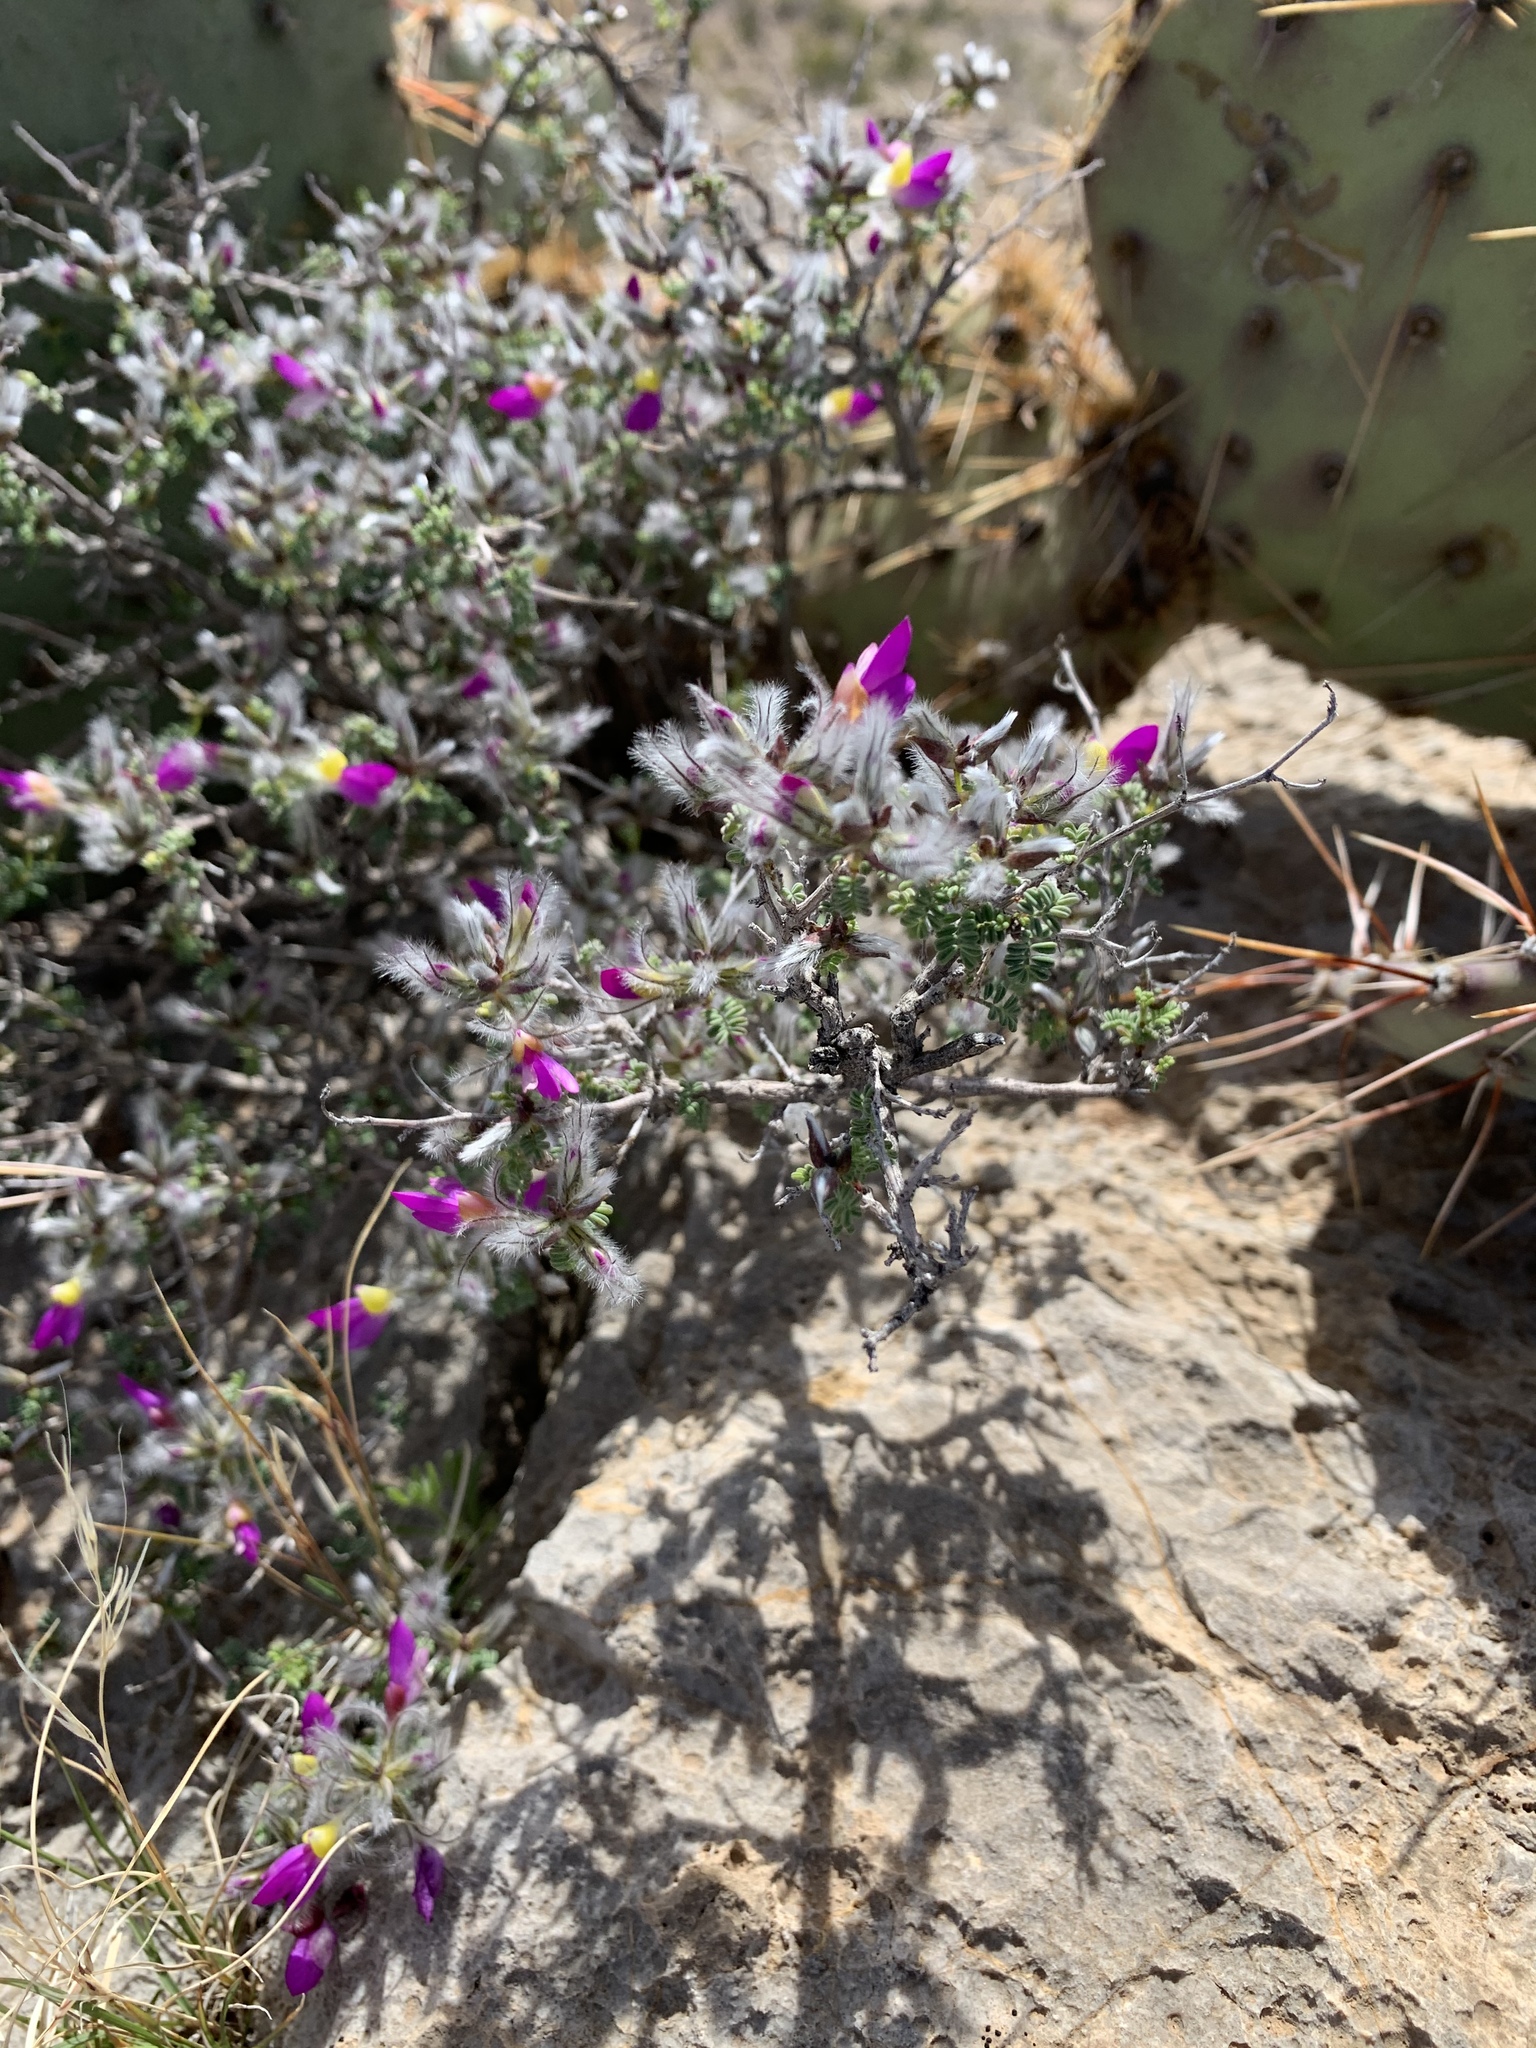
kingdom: Plantae
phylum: Tracheophyta
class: Magnoliopsida
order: Fabales
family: Fabaceae
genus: Dalea
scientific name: Dalea formosa
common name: Feather-plume dalea
